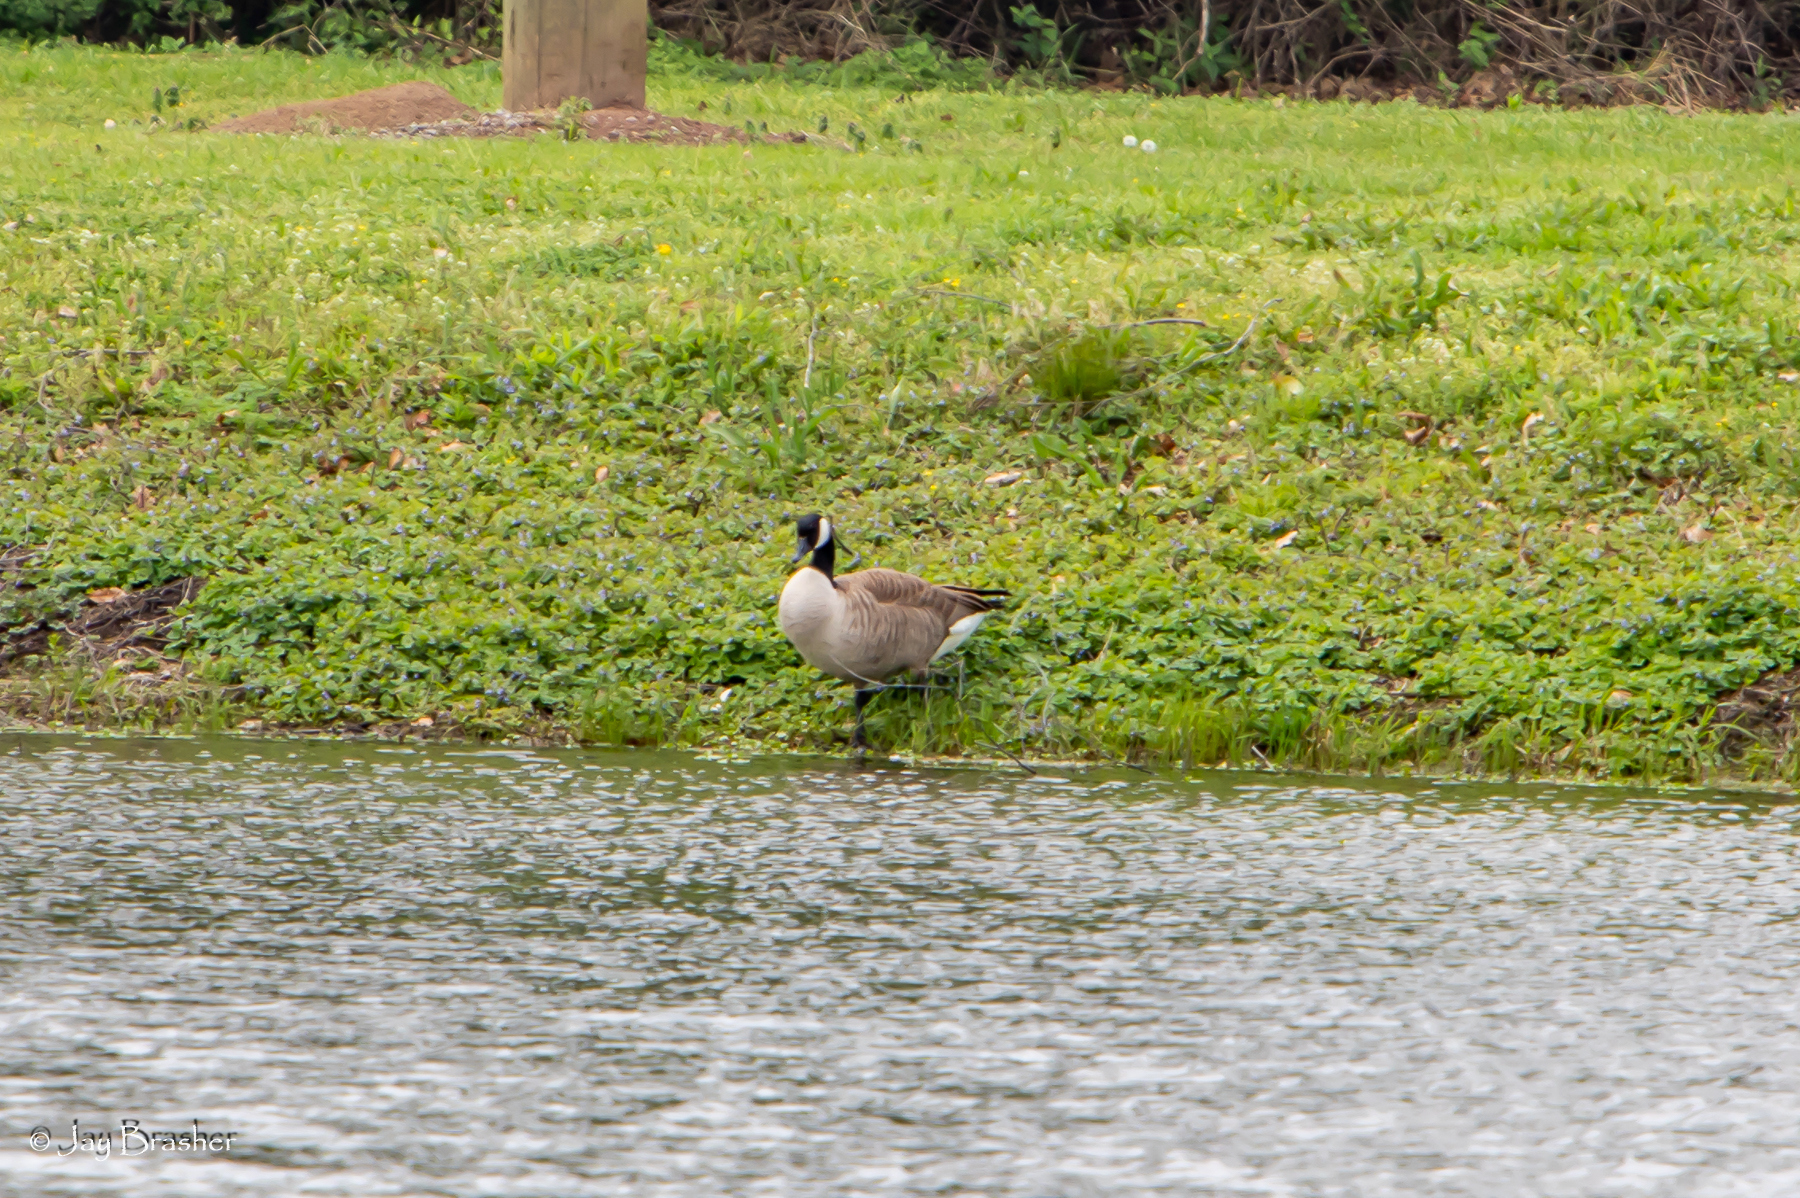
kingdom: Animalia
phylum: Chordata
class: Aves
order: Anseriformes
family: Anatidae
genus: Branta
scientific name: Branta canadensis
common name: Canada goose
